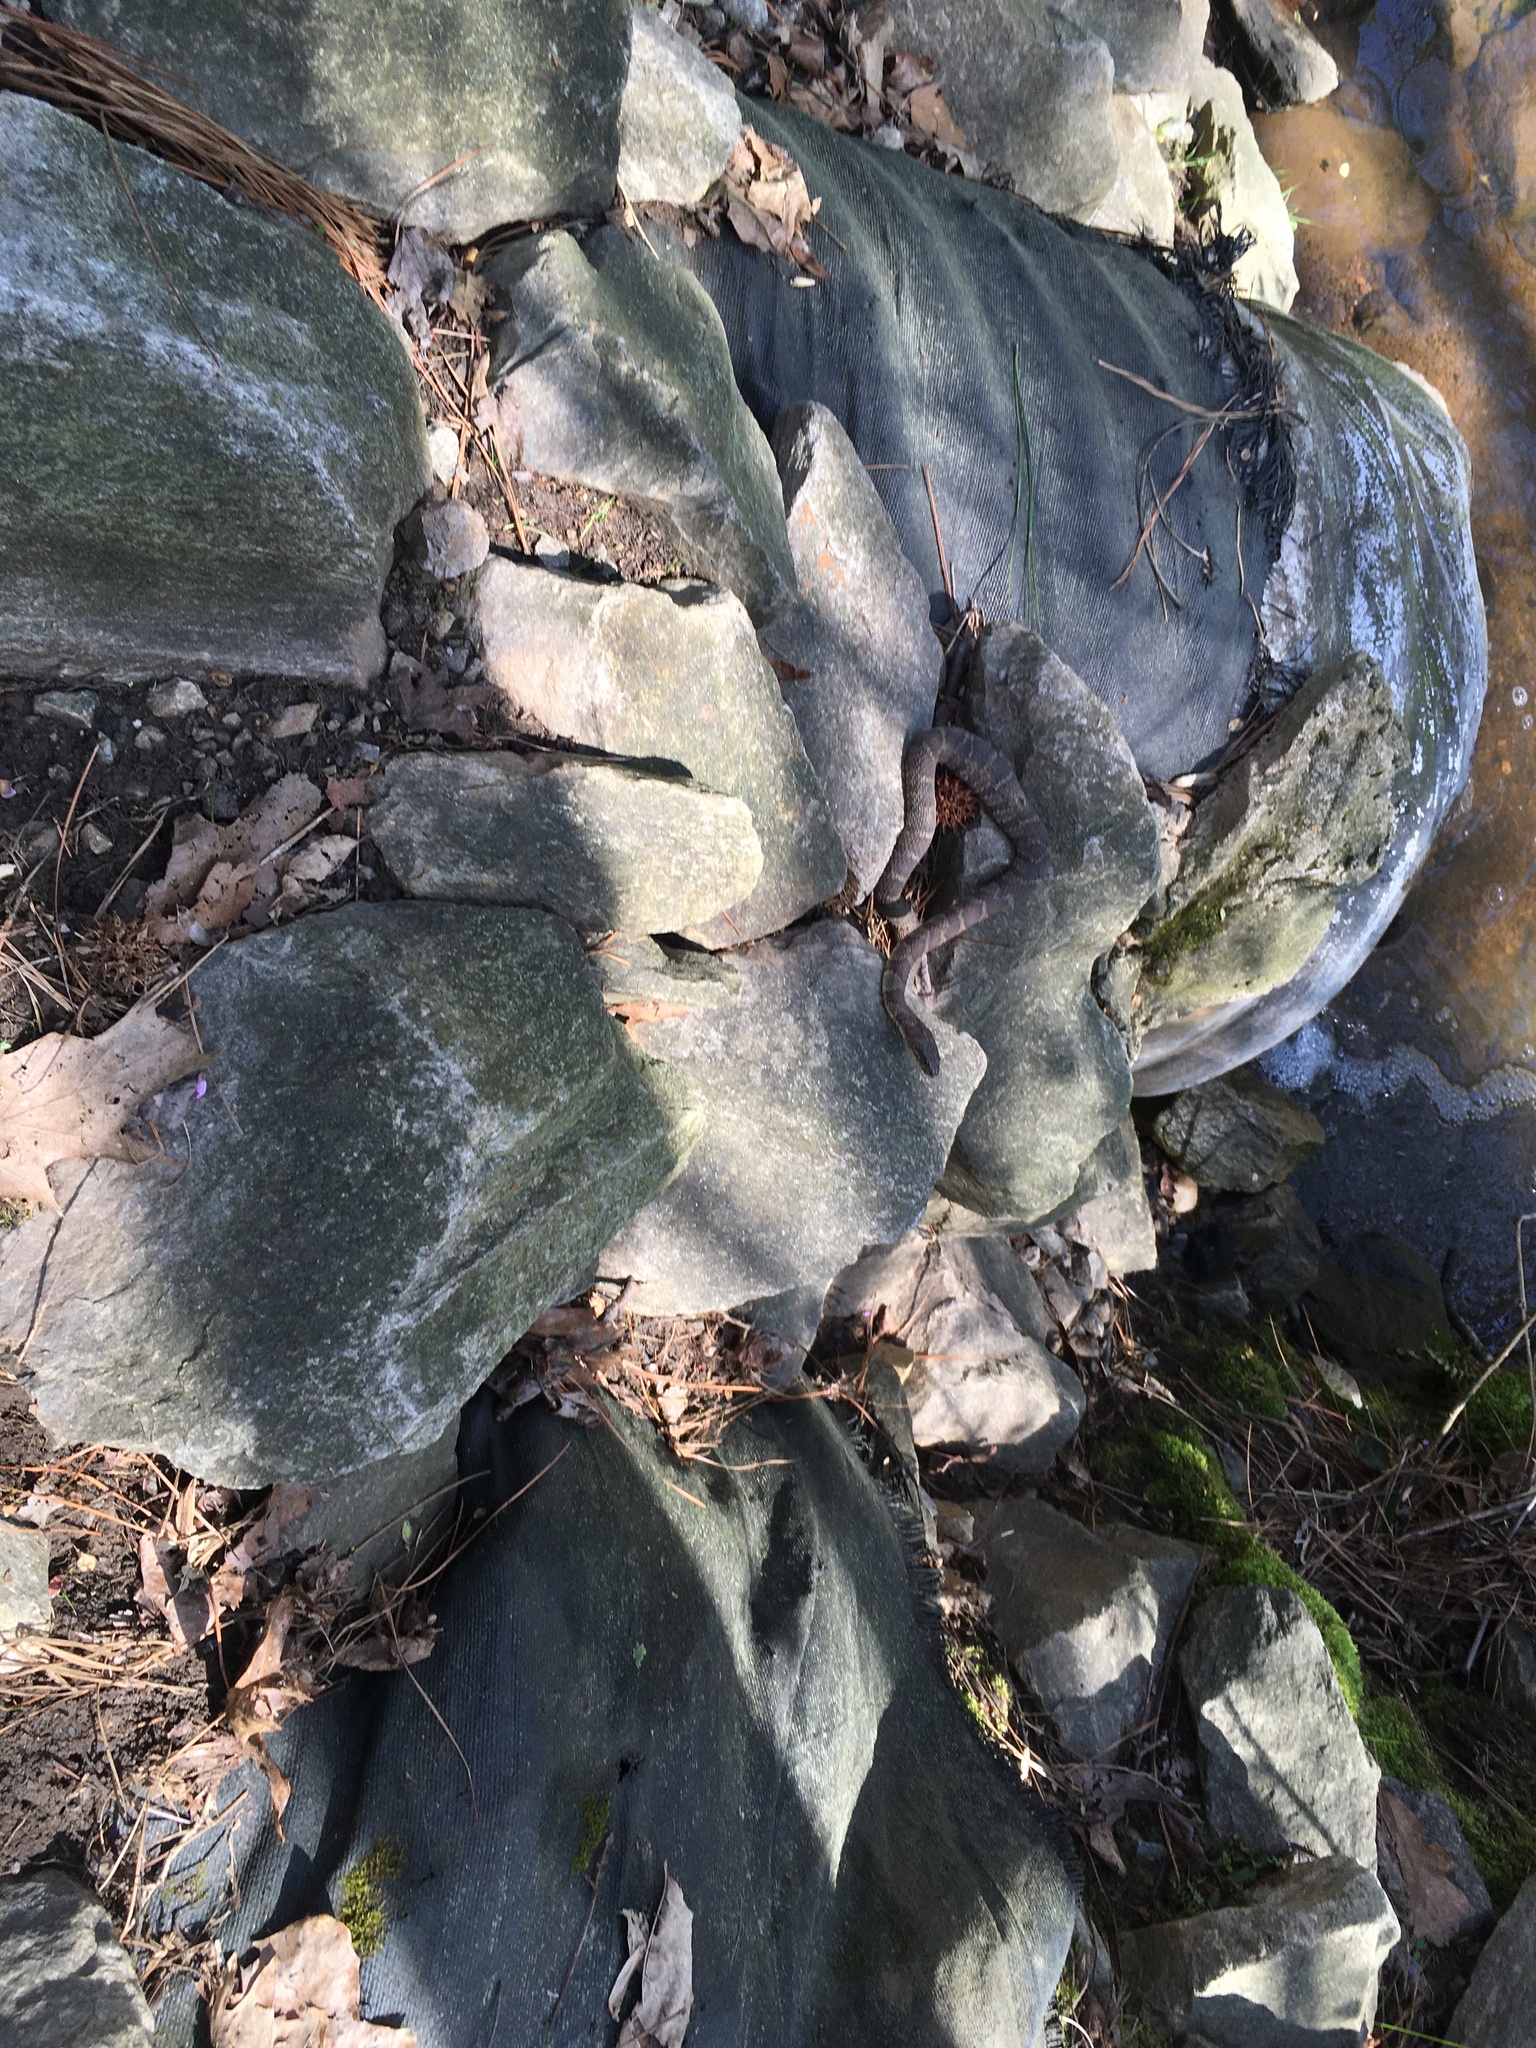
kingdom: Animalia
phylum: Chordata
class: Squamata
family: Colubridae
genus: Nerodia
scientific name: Nerodia sipedon
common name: Northern water snake
